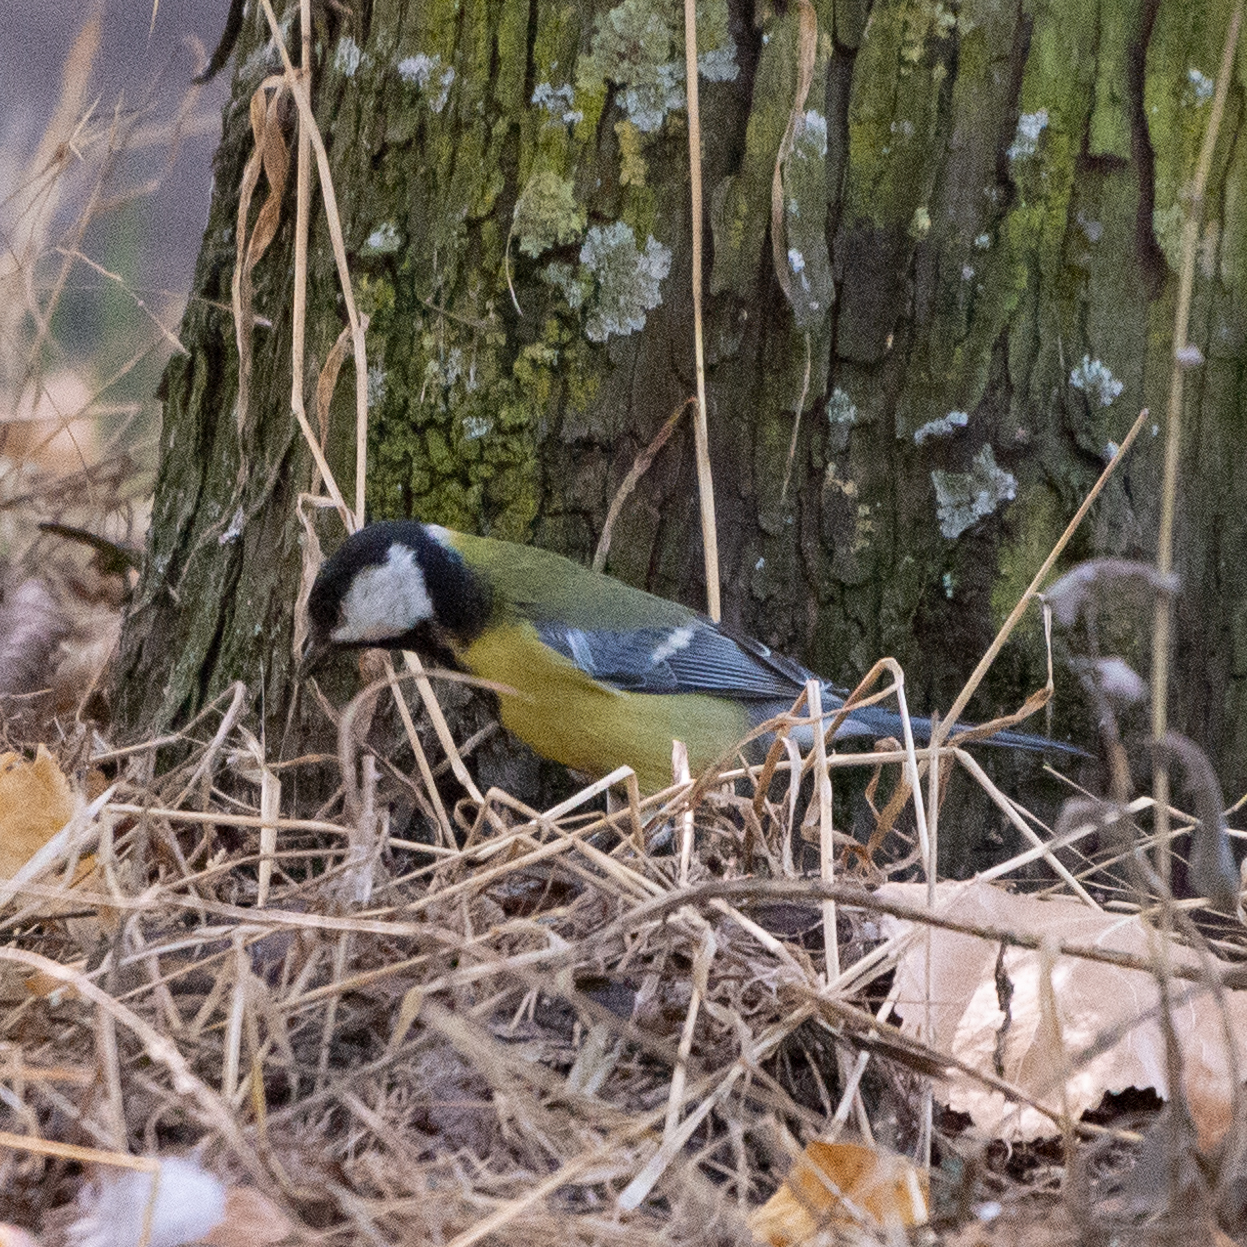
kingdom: Animalia
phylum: Chordata
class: Aves
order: Passeriformes
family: Paridae
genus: Parus
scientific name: Parus major
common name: Great tit
